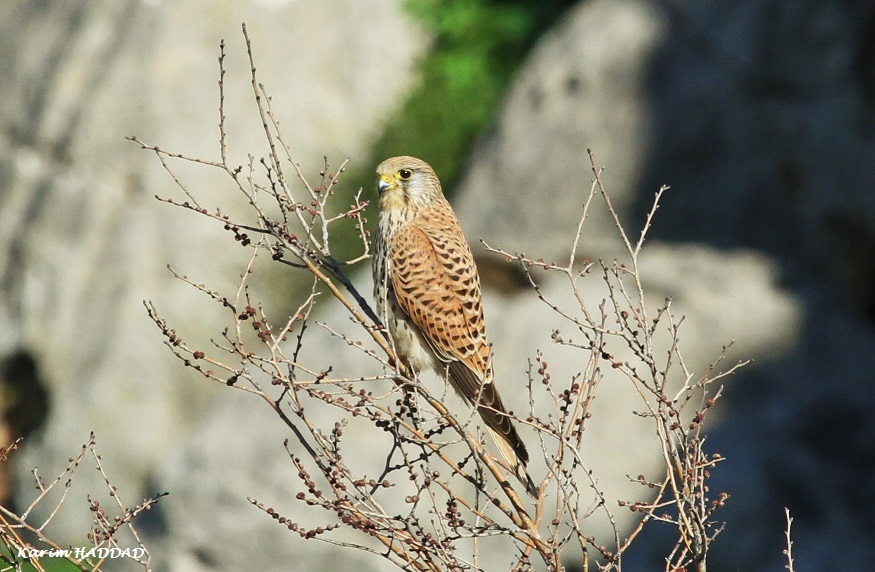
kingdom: Animalia
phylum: Chordata
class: Aves
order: Falconiformes
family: Falconidae
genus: Falco
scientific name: Falco tinnunculus
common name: Common kestrel
